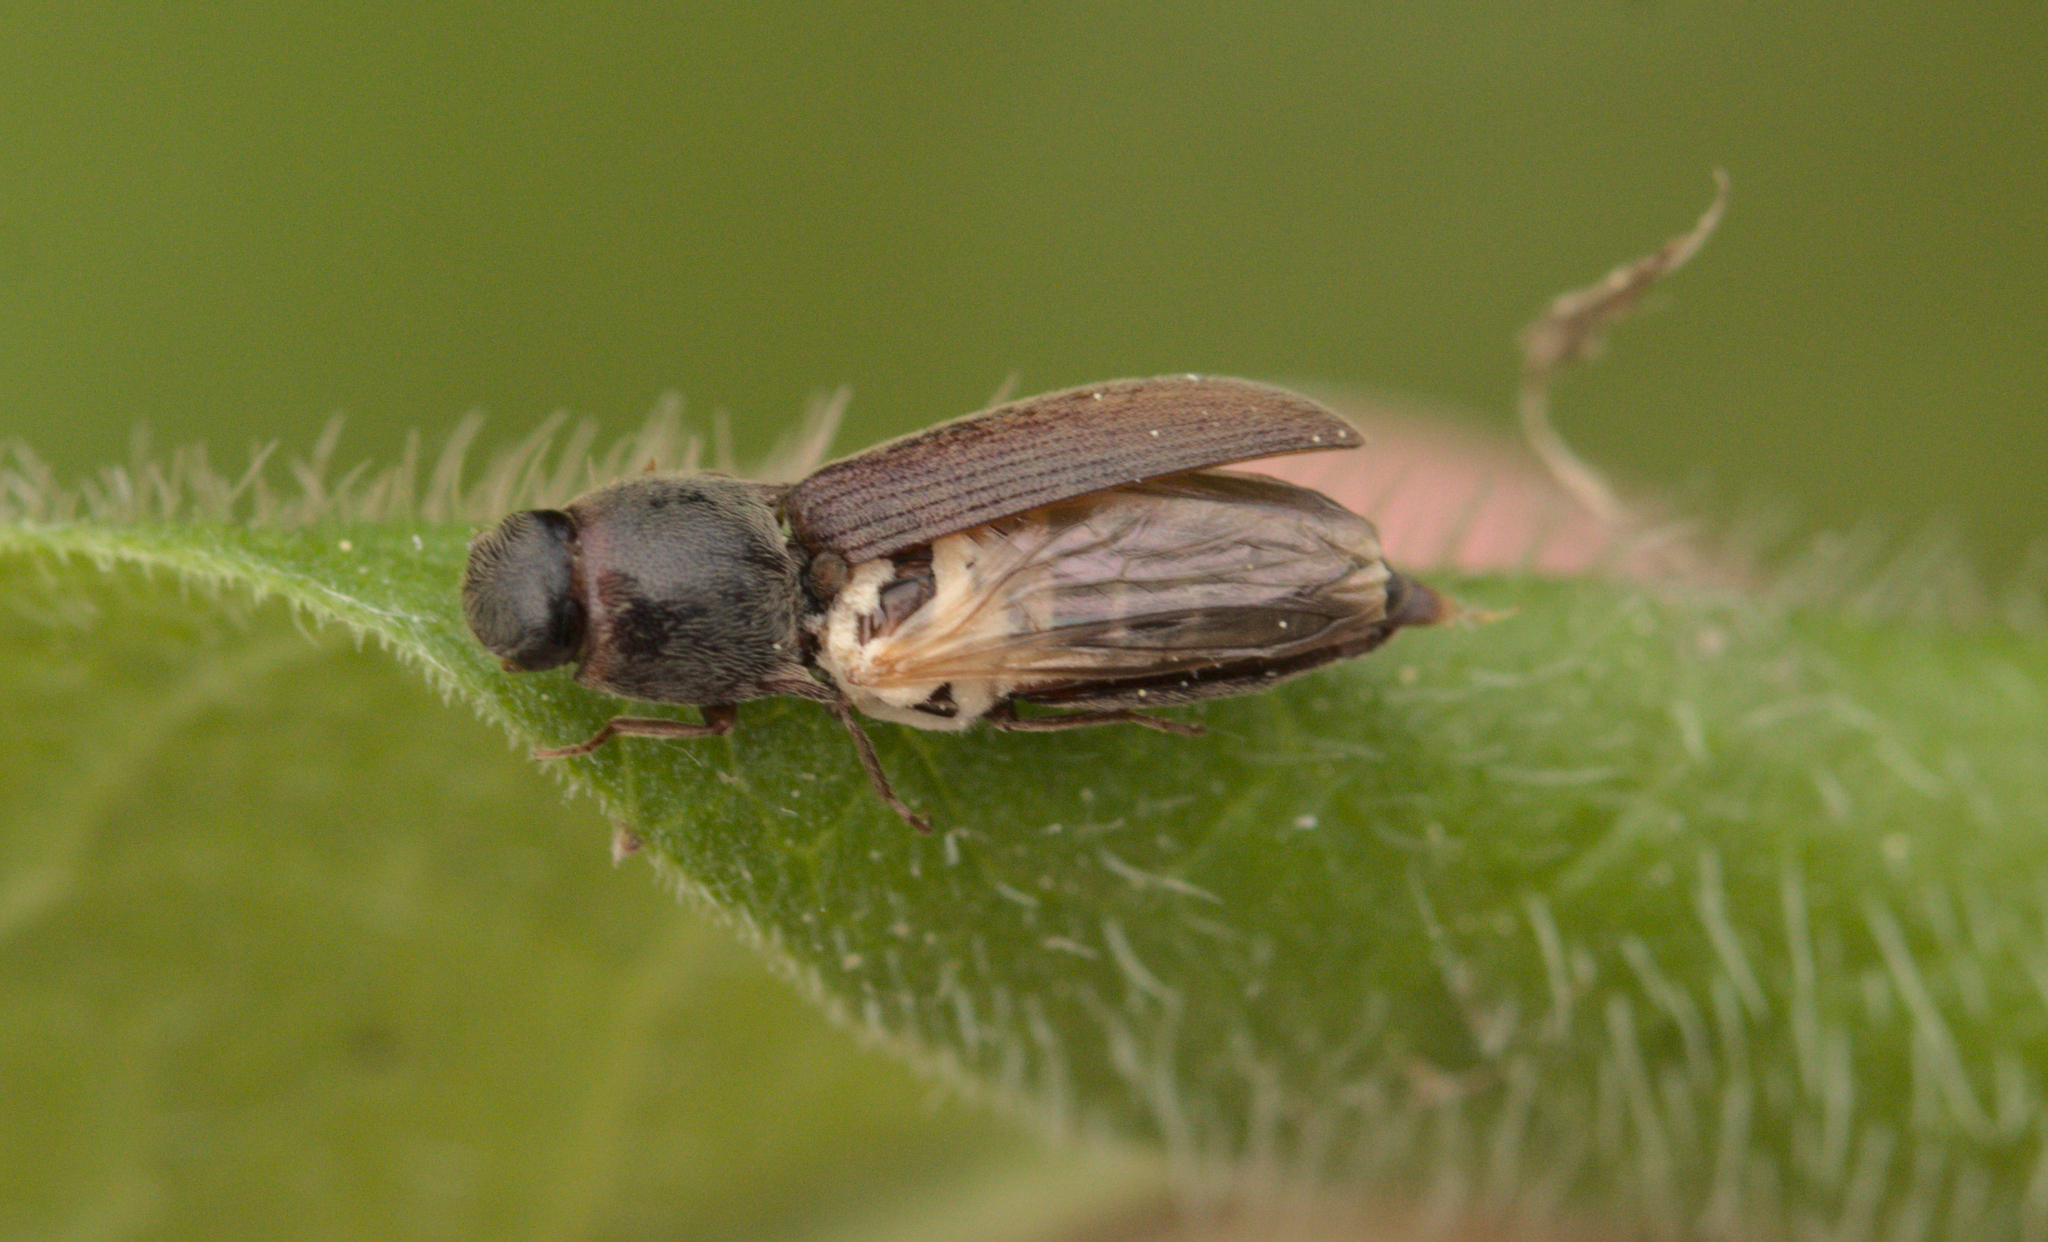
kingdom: Animalia
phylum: Arthropoda
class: Insecta
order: Coleoptera
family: Elateridae
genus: Agriotes
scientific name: Agriotes sputator
